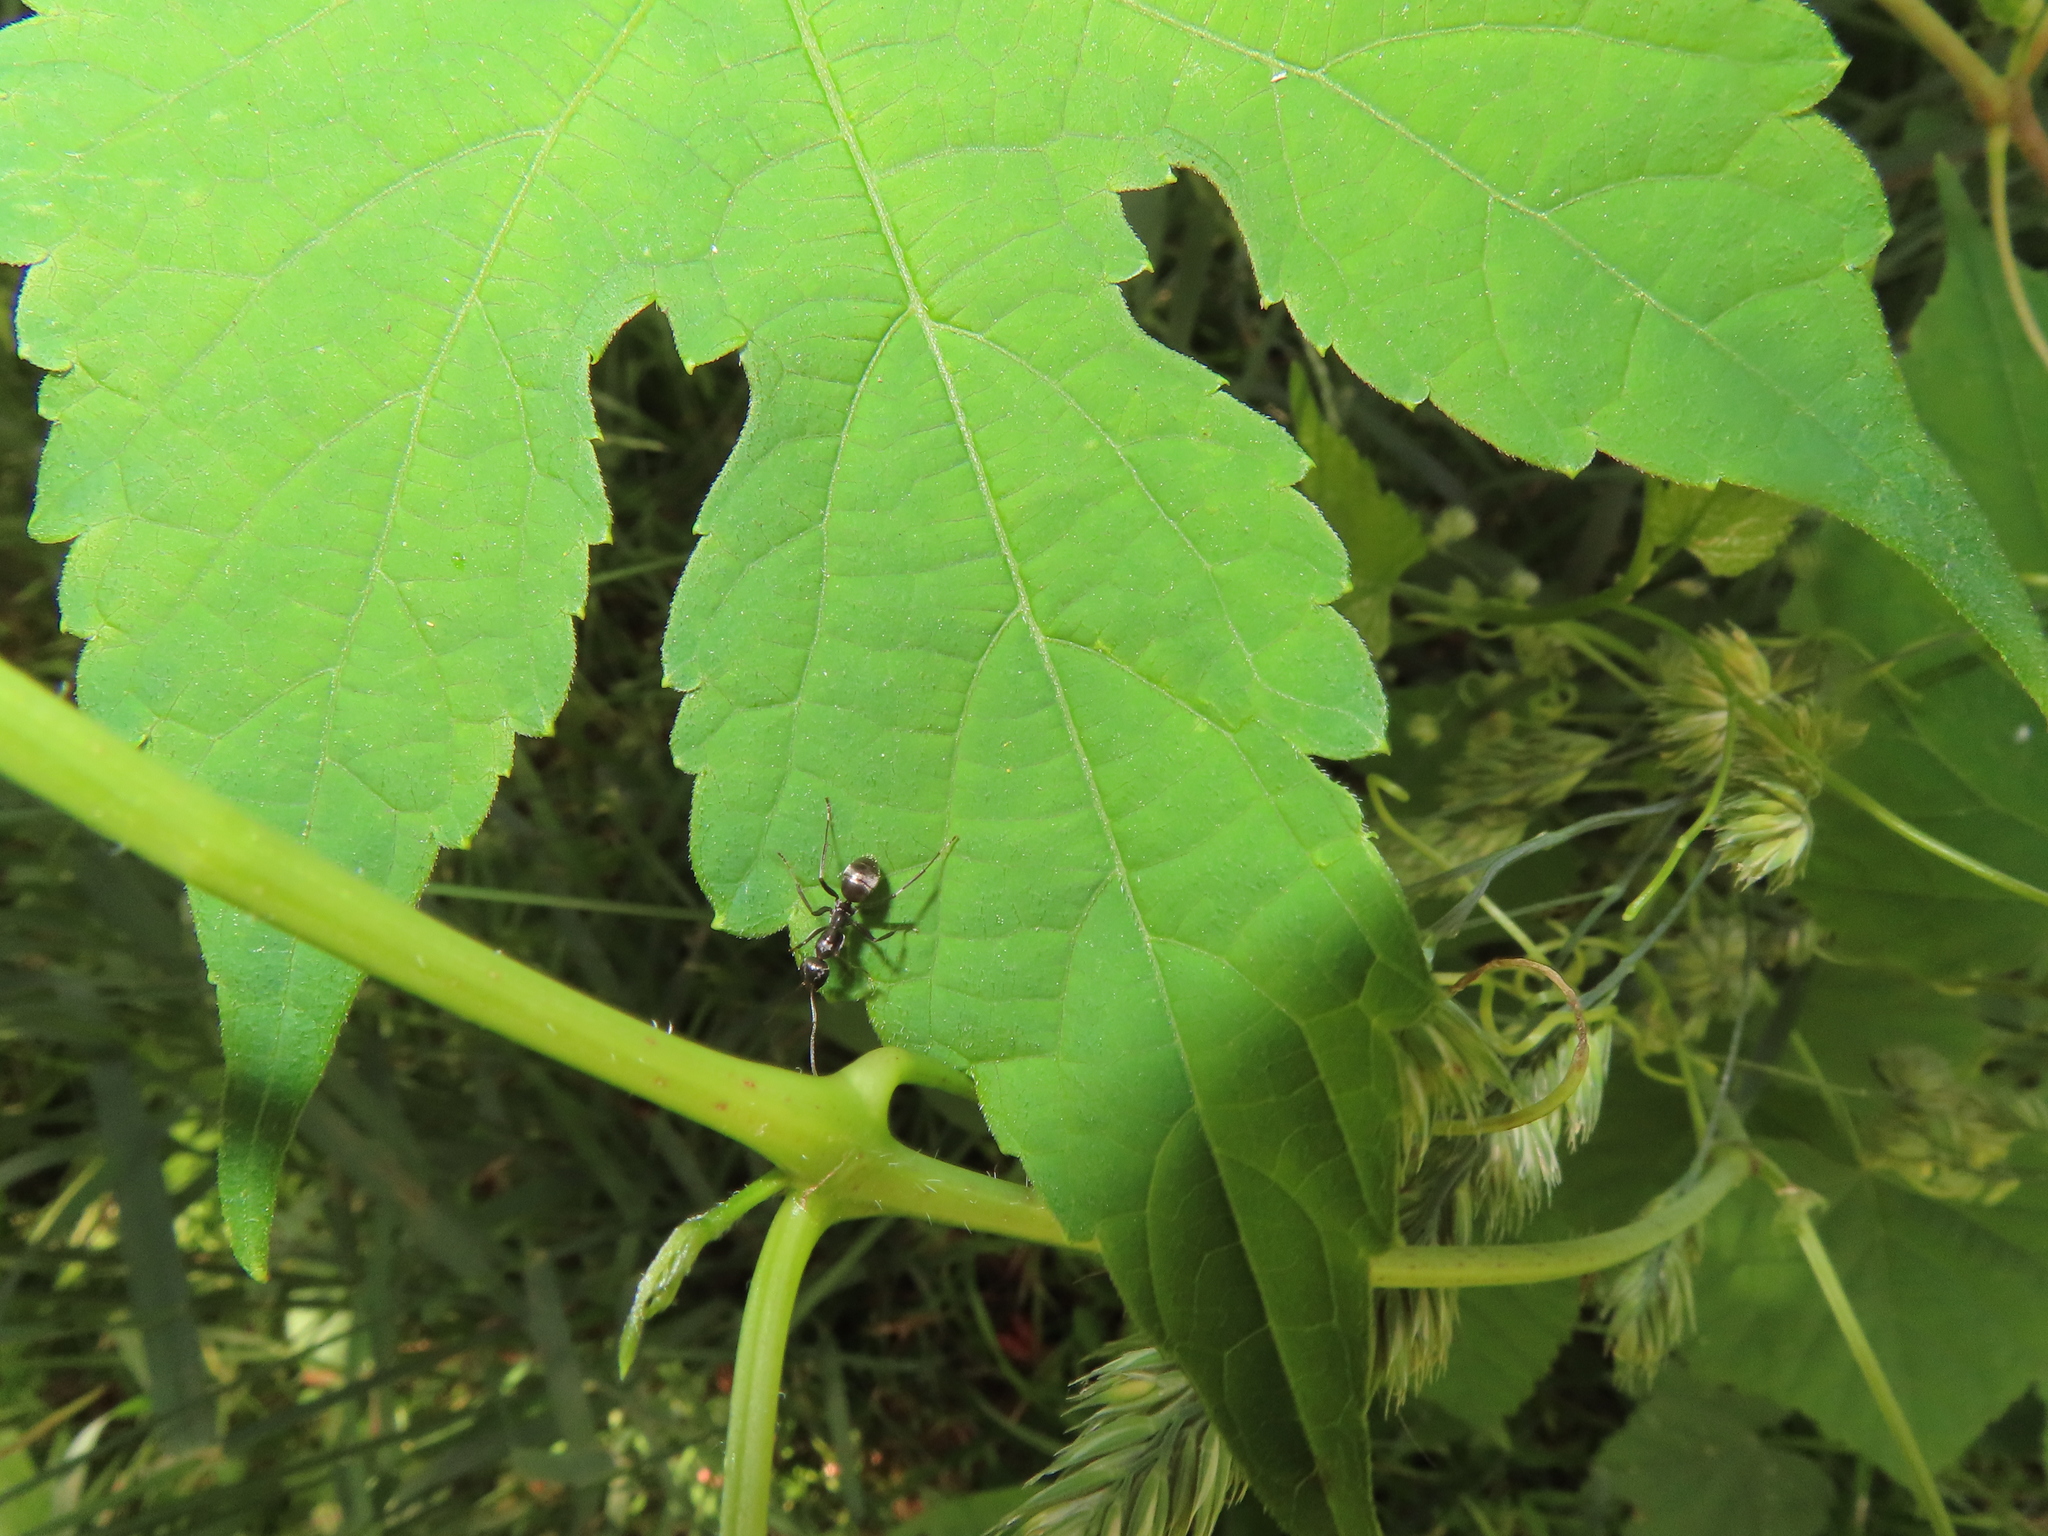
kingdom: Animalia
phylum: Arthropoda
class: Insecta
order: Hymenoptera
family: Formicidae
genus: Formica
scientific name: Formica
